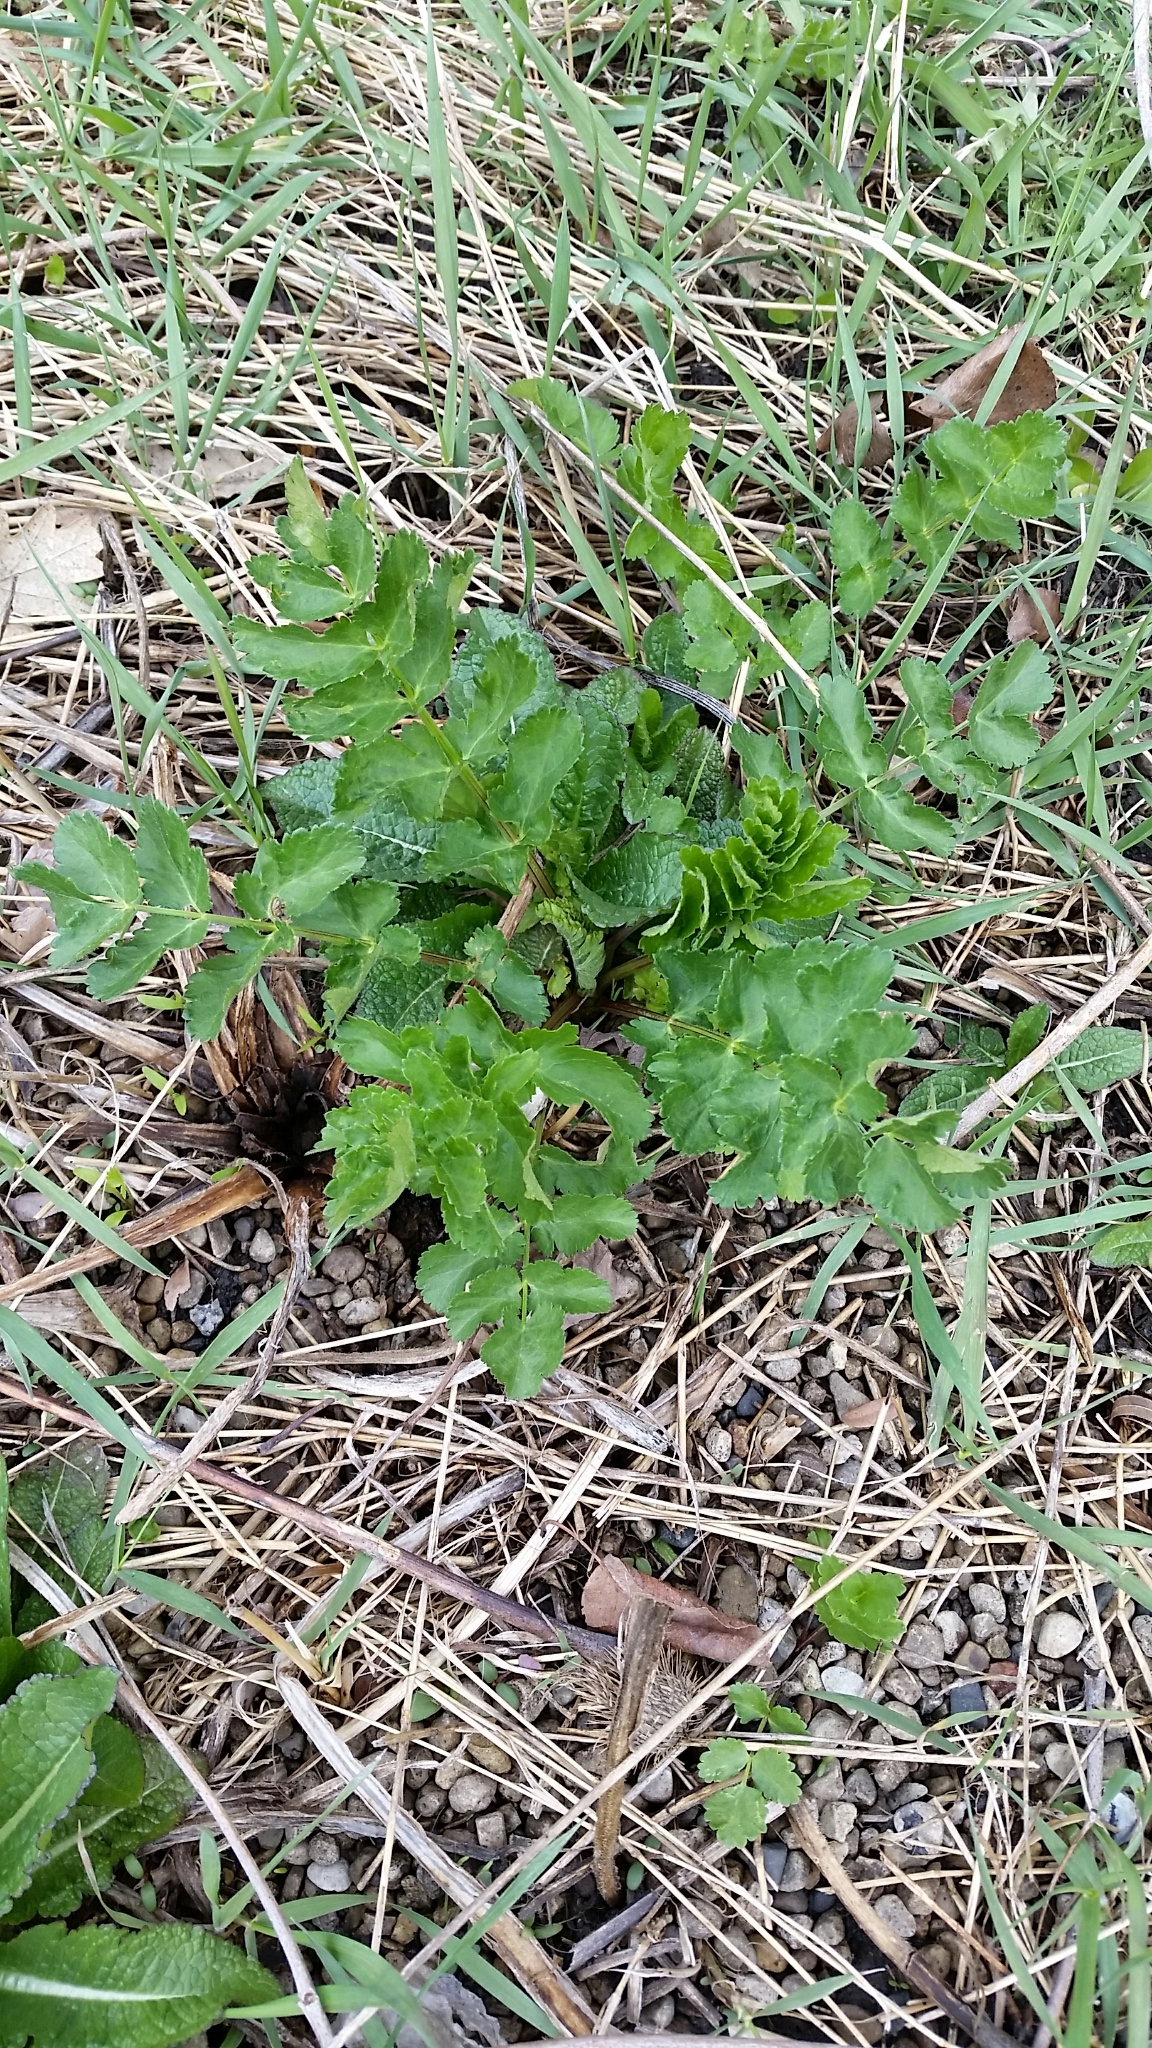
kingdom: Plantae
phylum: Tracheophyta
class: Magnoliopsida
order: Apiales
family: Apiaceae
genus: Pastinaca
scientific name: Pastinaca sativa
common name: Wild parsnip
